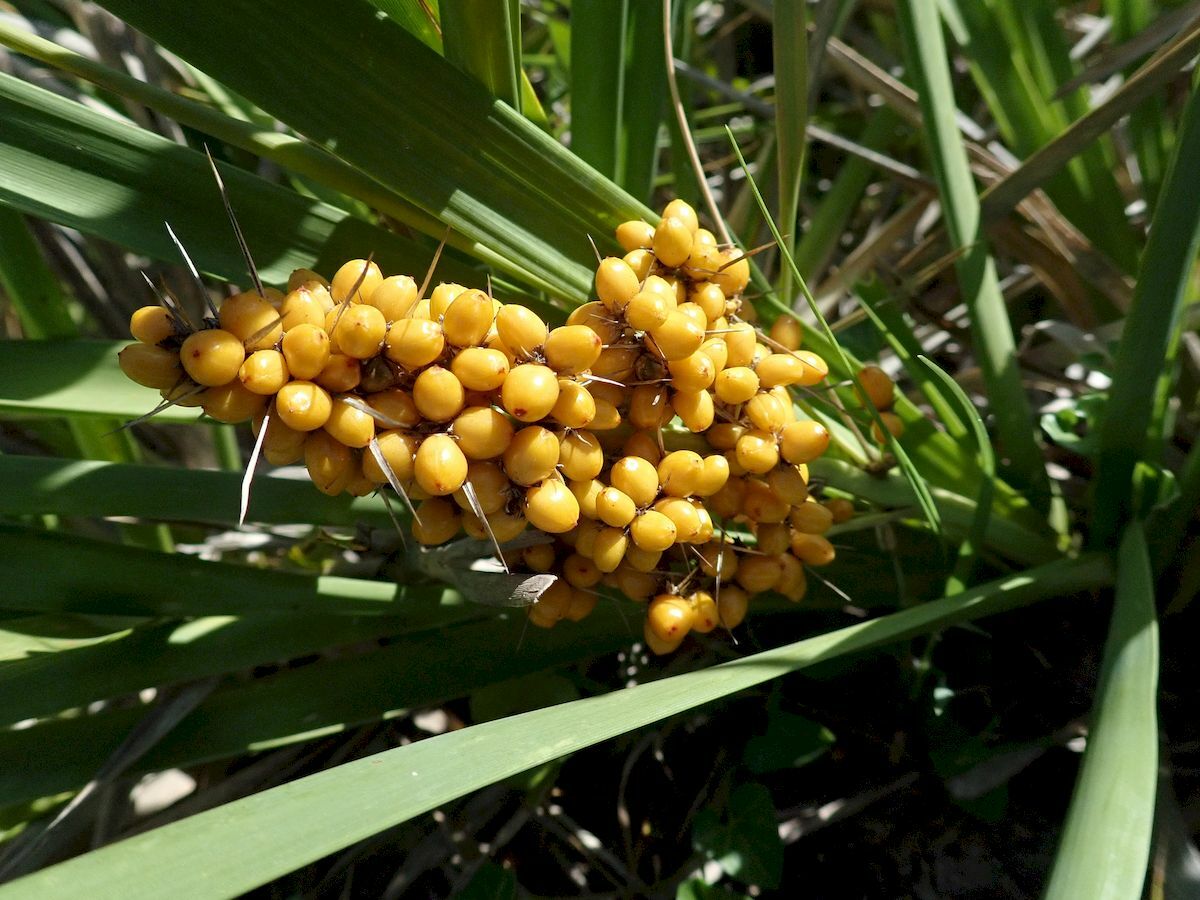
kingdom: Plantae
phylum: Tracheophyta
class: Liliopsida
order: Asparagales
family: Asparagaceae
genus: Lomandra
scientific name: Lomandra longifolia
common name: Longleaf mat-rush
